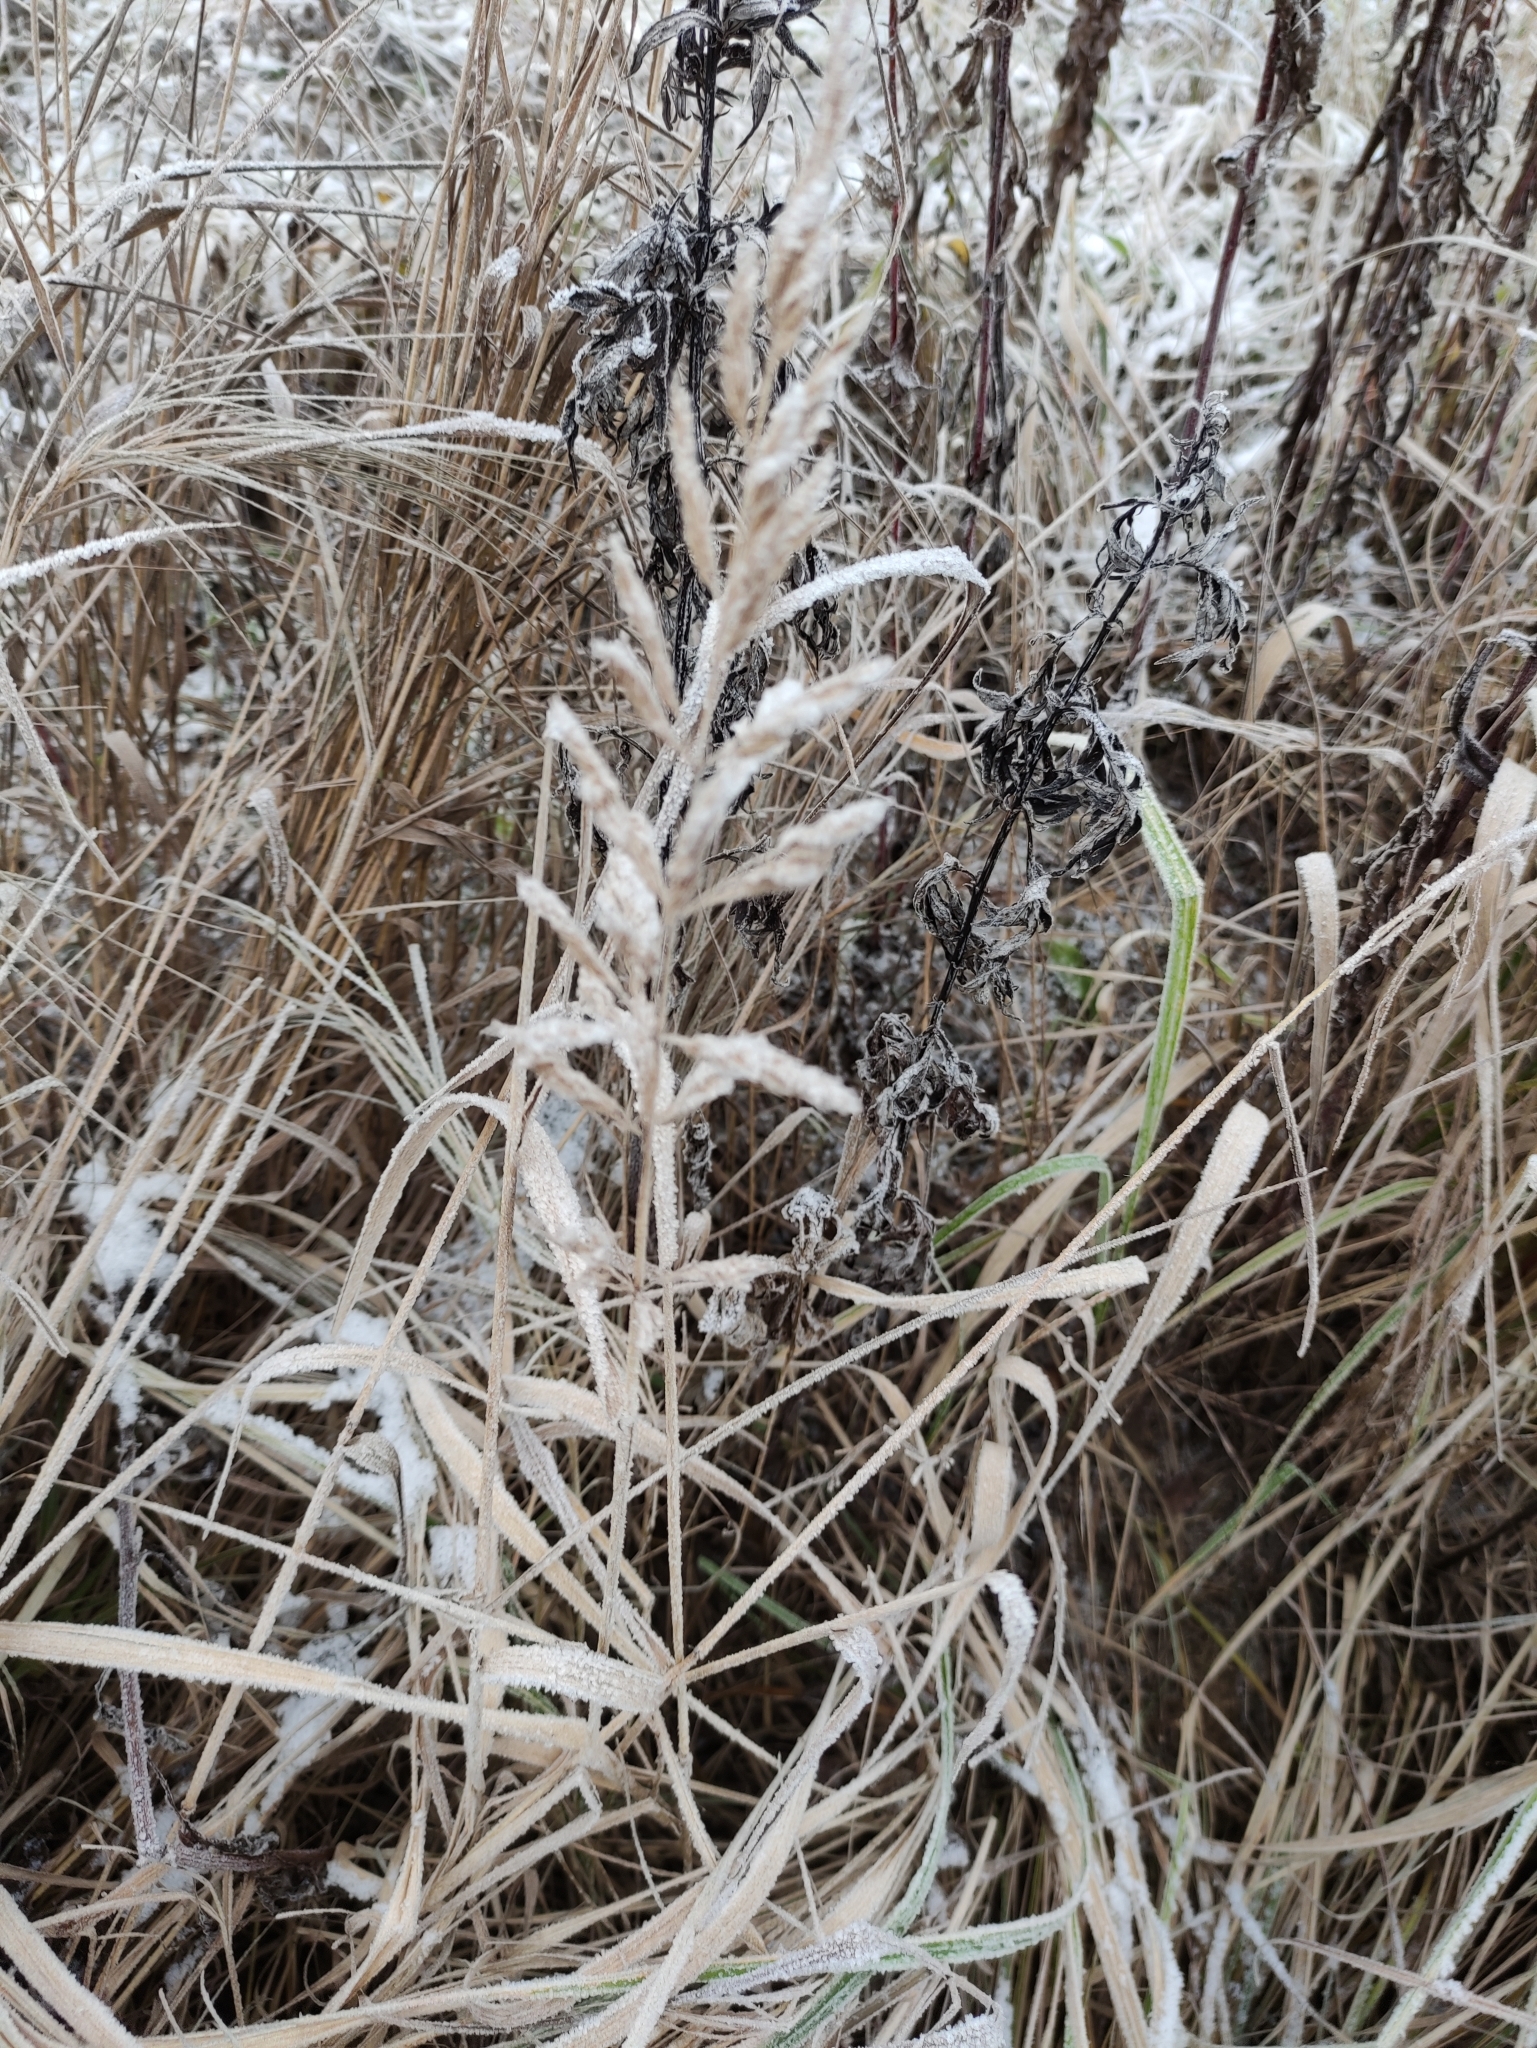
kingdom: Plantae
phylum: Tracheophyta
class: Liliopsida
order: Poales
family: Poaceae
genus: Calamagrostis
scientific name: Calamagrostis epigejos
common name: Wood small-reed
